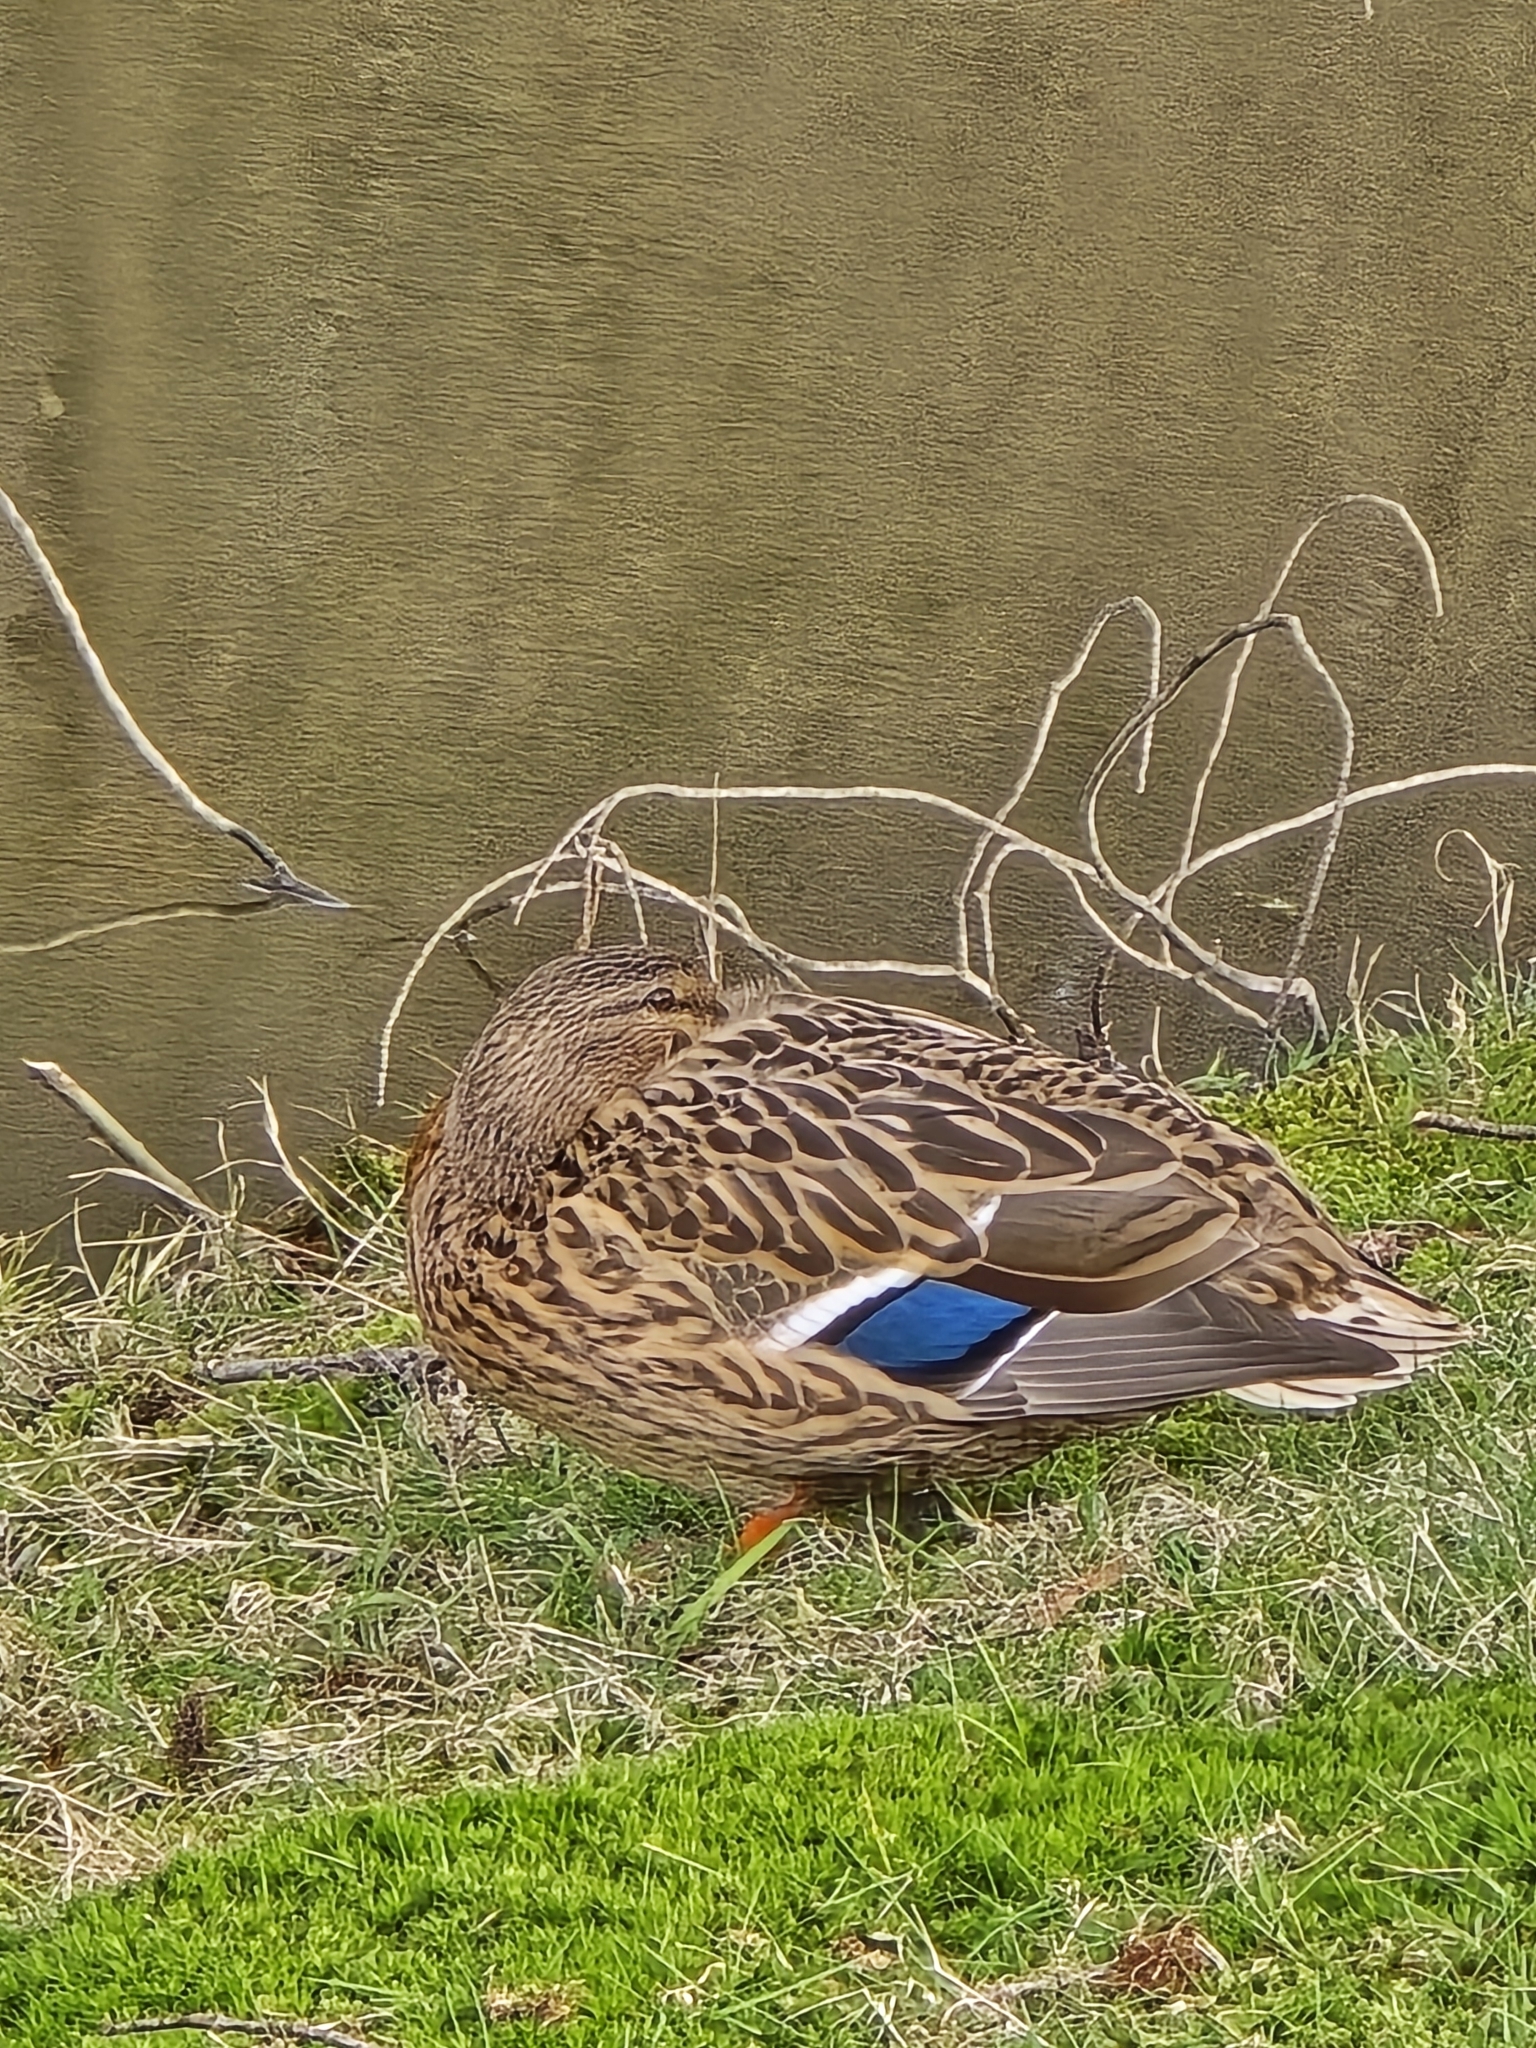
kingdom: Animalia
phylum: Chordata
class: Aves
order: Anseriformes
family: Anatidae
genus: Anas
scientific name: Anas platyrhynchos
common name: Mallard
